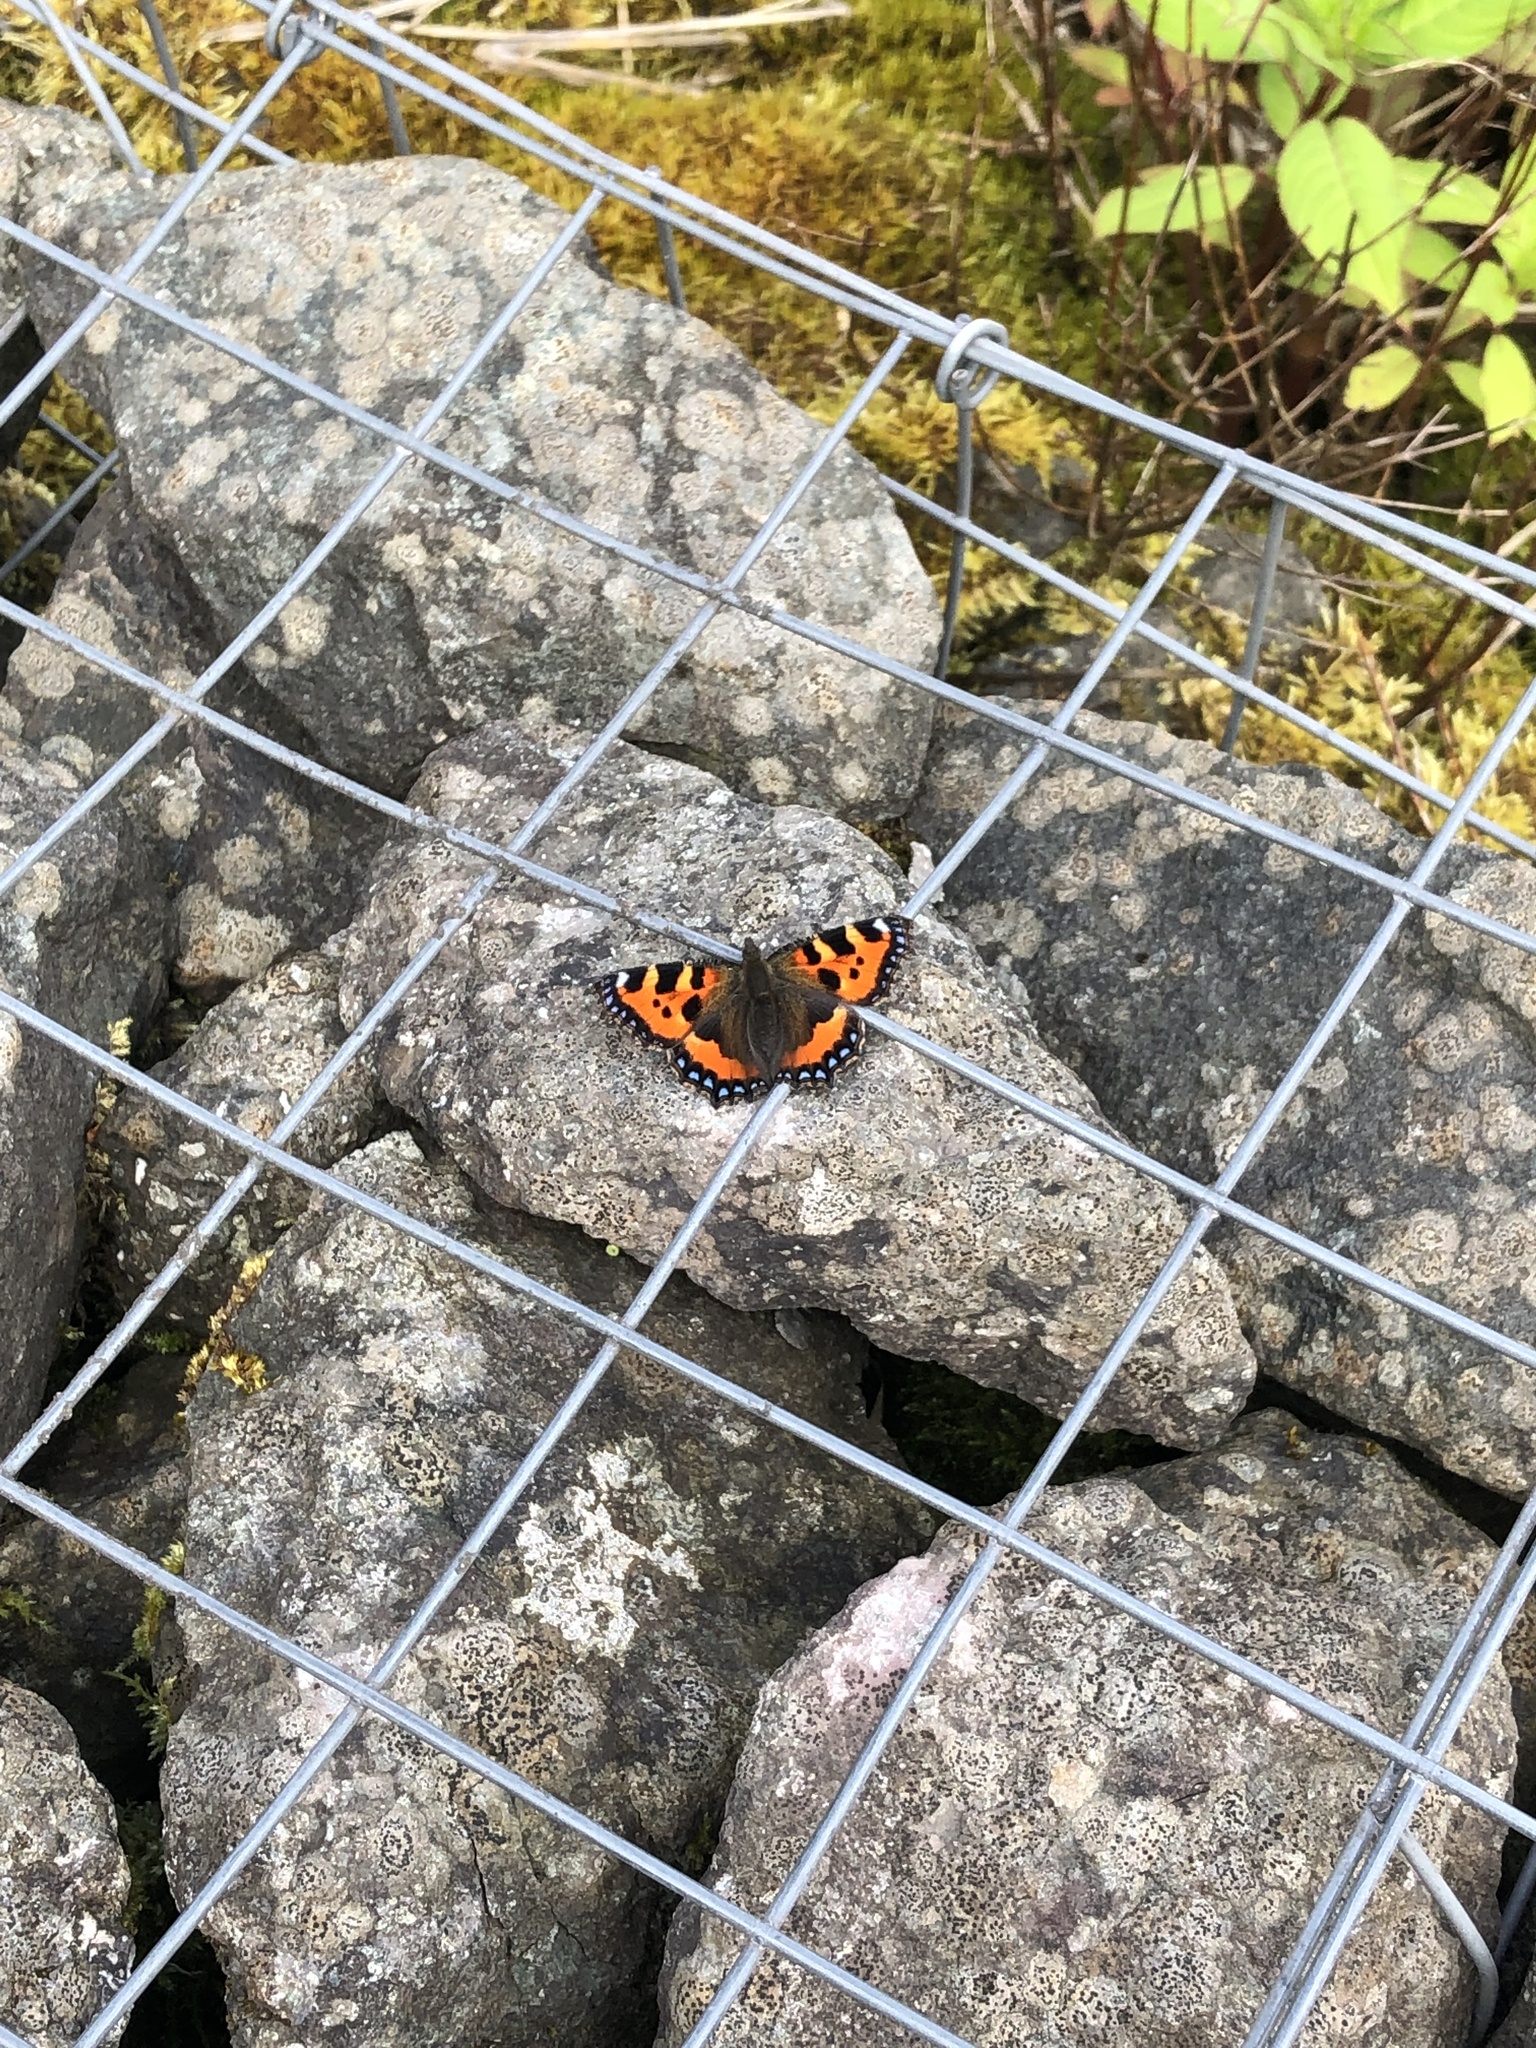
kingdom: Animalia
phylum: Arthropoda
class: Insecta
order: Lepidoptera
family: Nymphalidae
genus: Aglais
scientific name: Aglais urticae
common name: Small tortoiseshell
